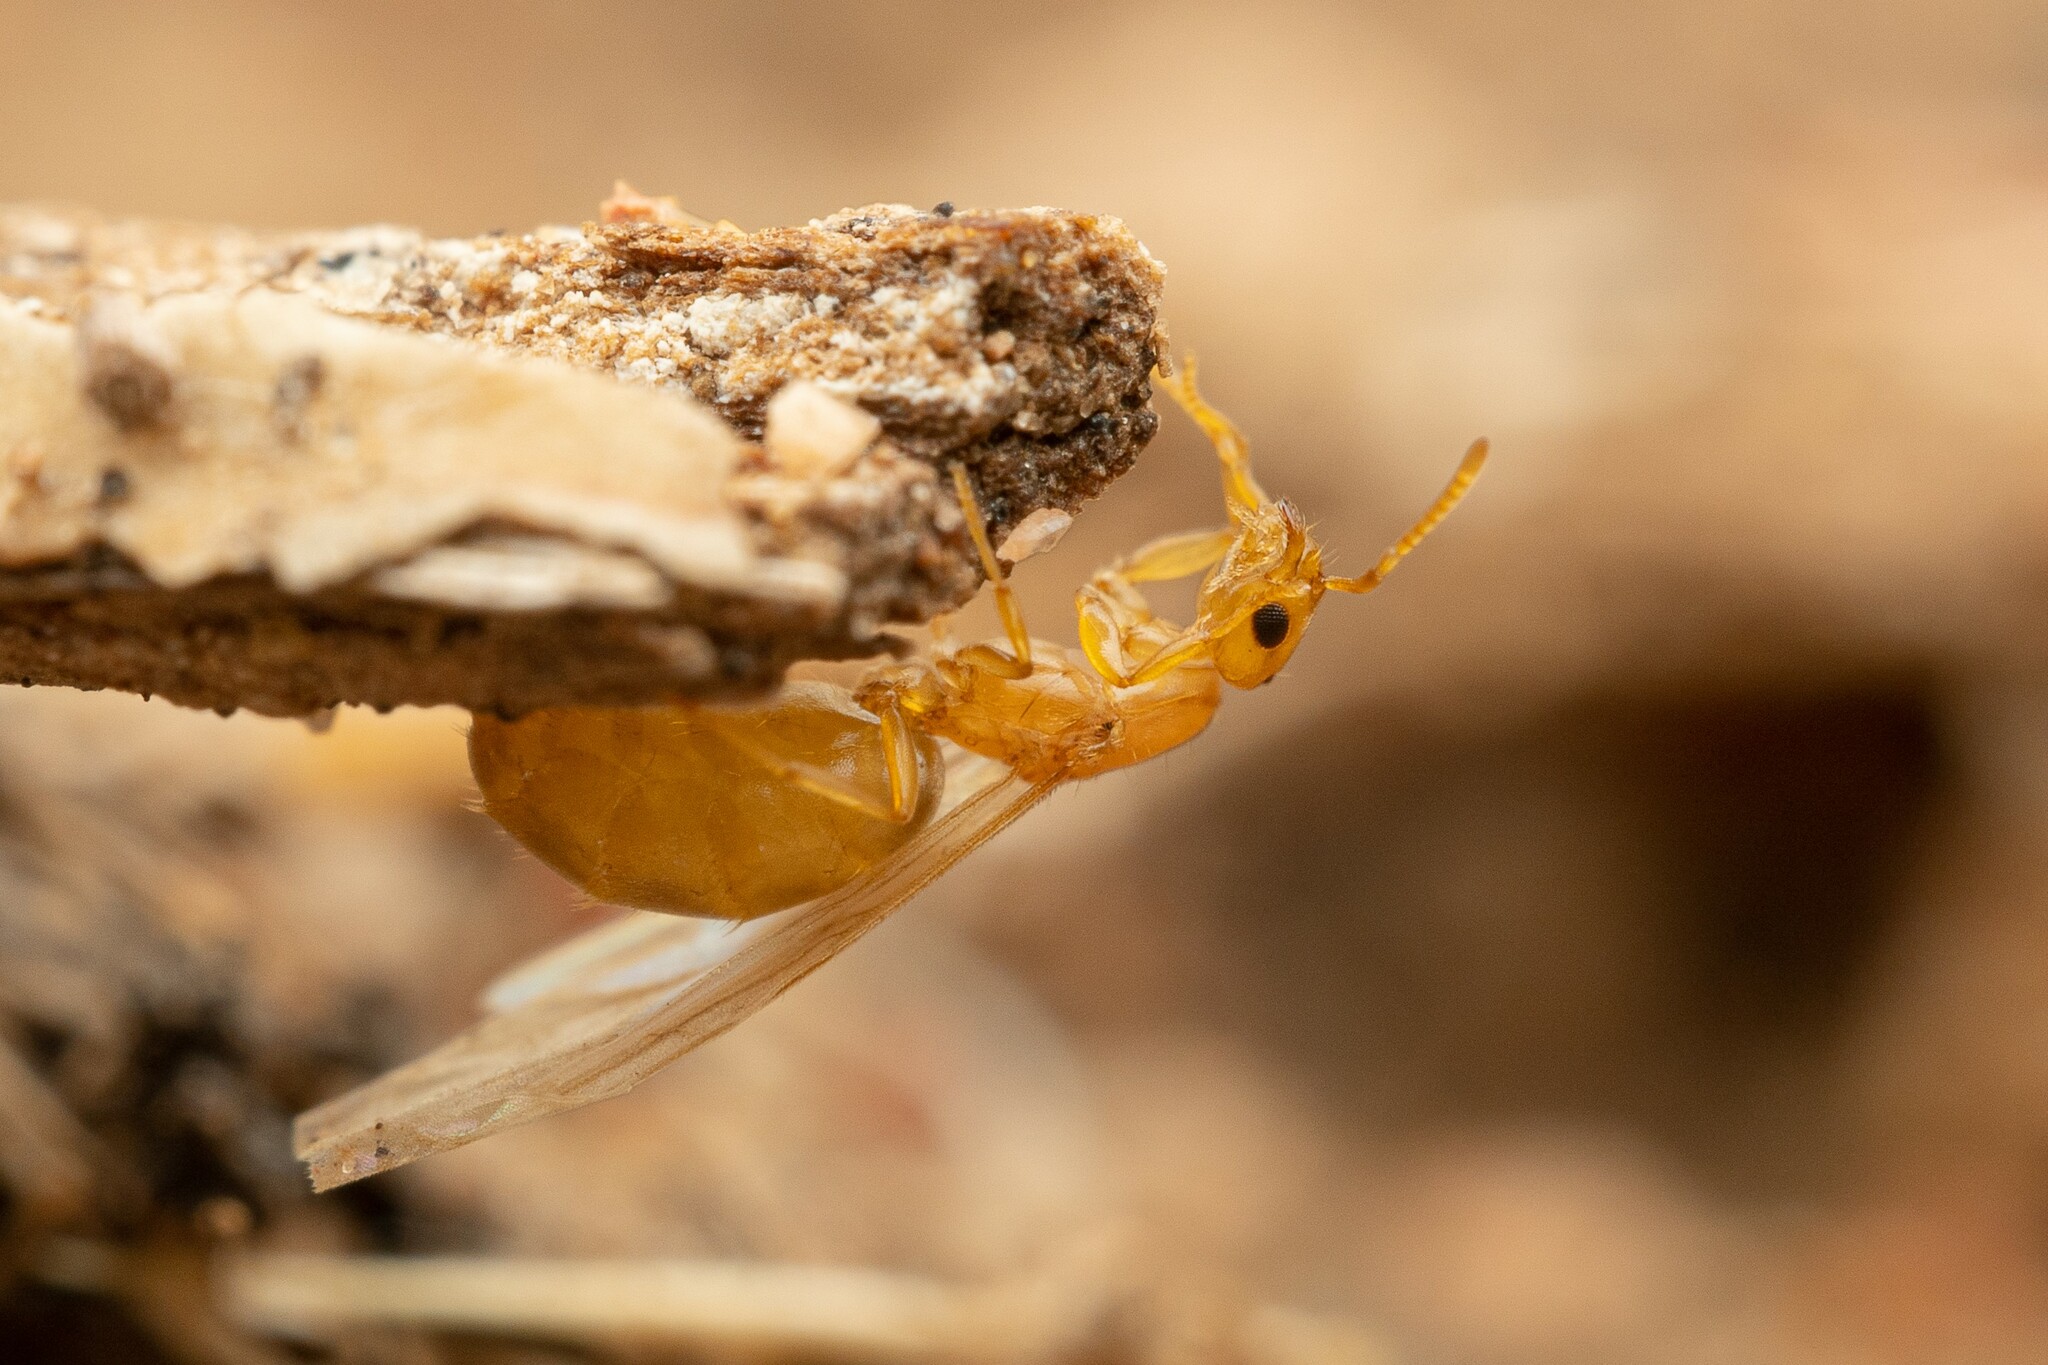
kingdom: Animalia
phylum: Arthropoda
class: Insecta
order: Hymenoptera
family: Formicidae
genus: Brachymyrmex
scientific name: Brachymyrmex depilis
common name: Hairless rover ant
